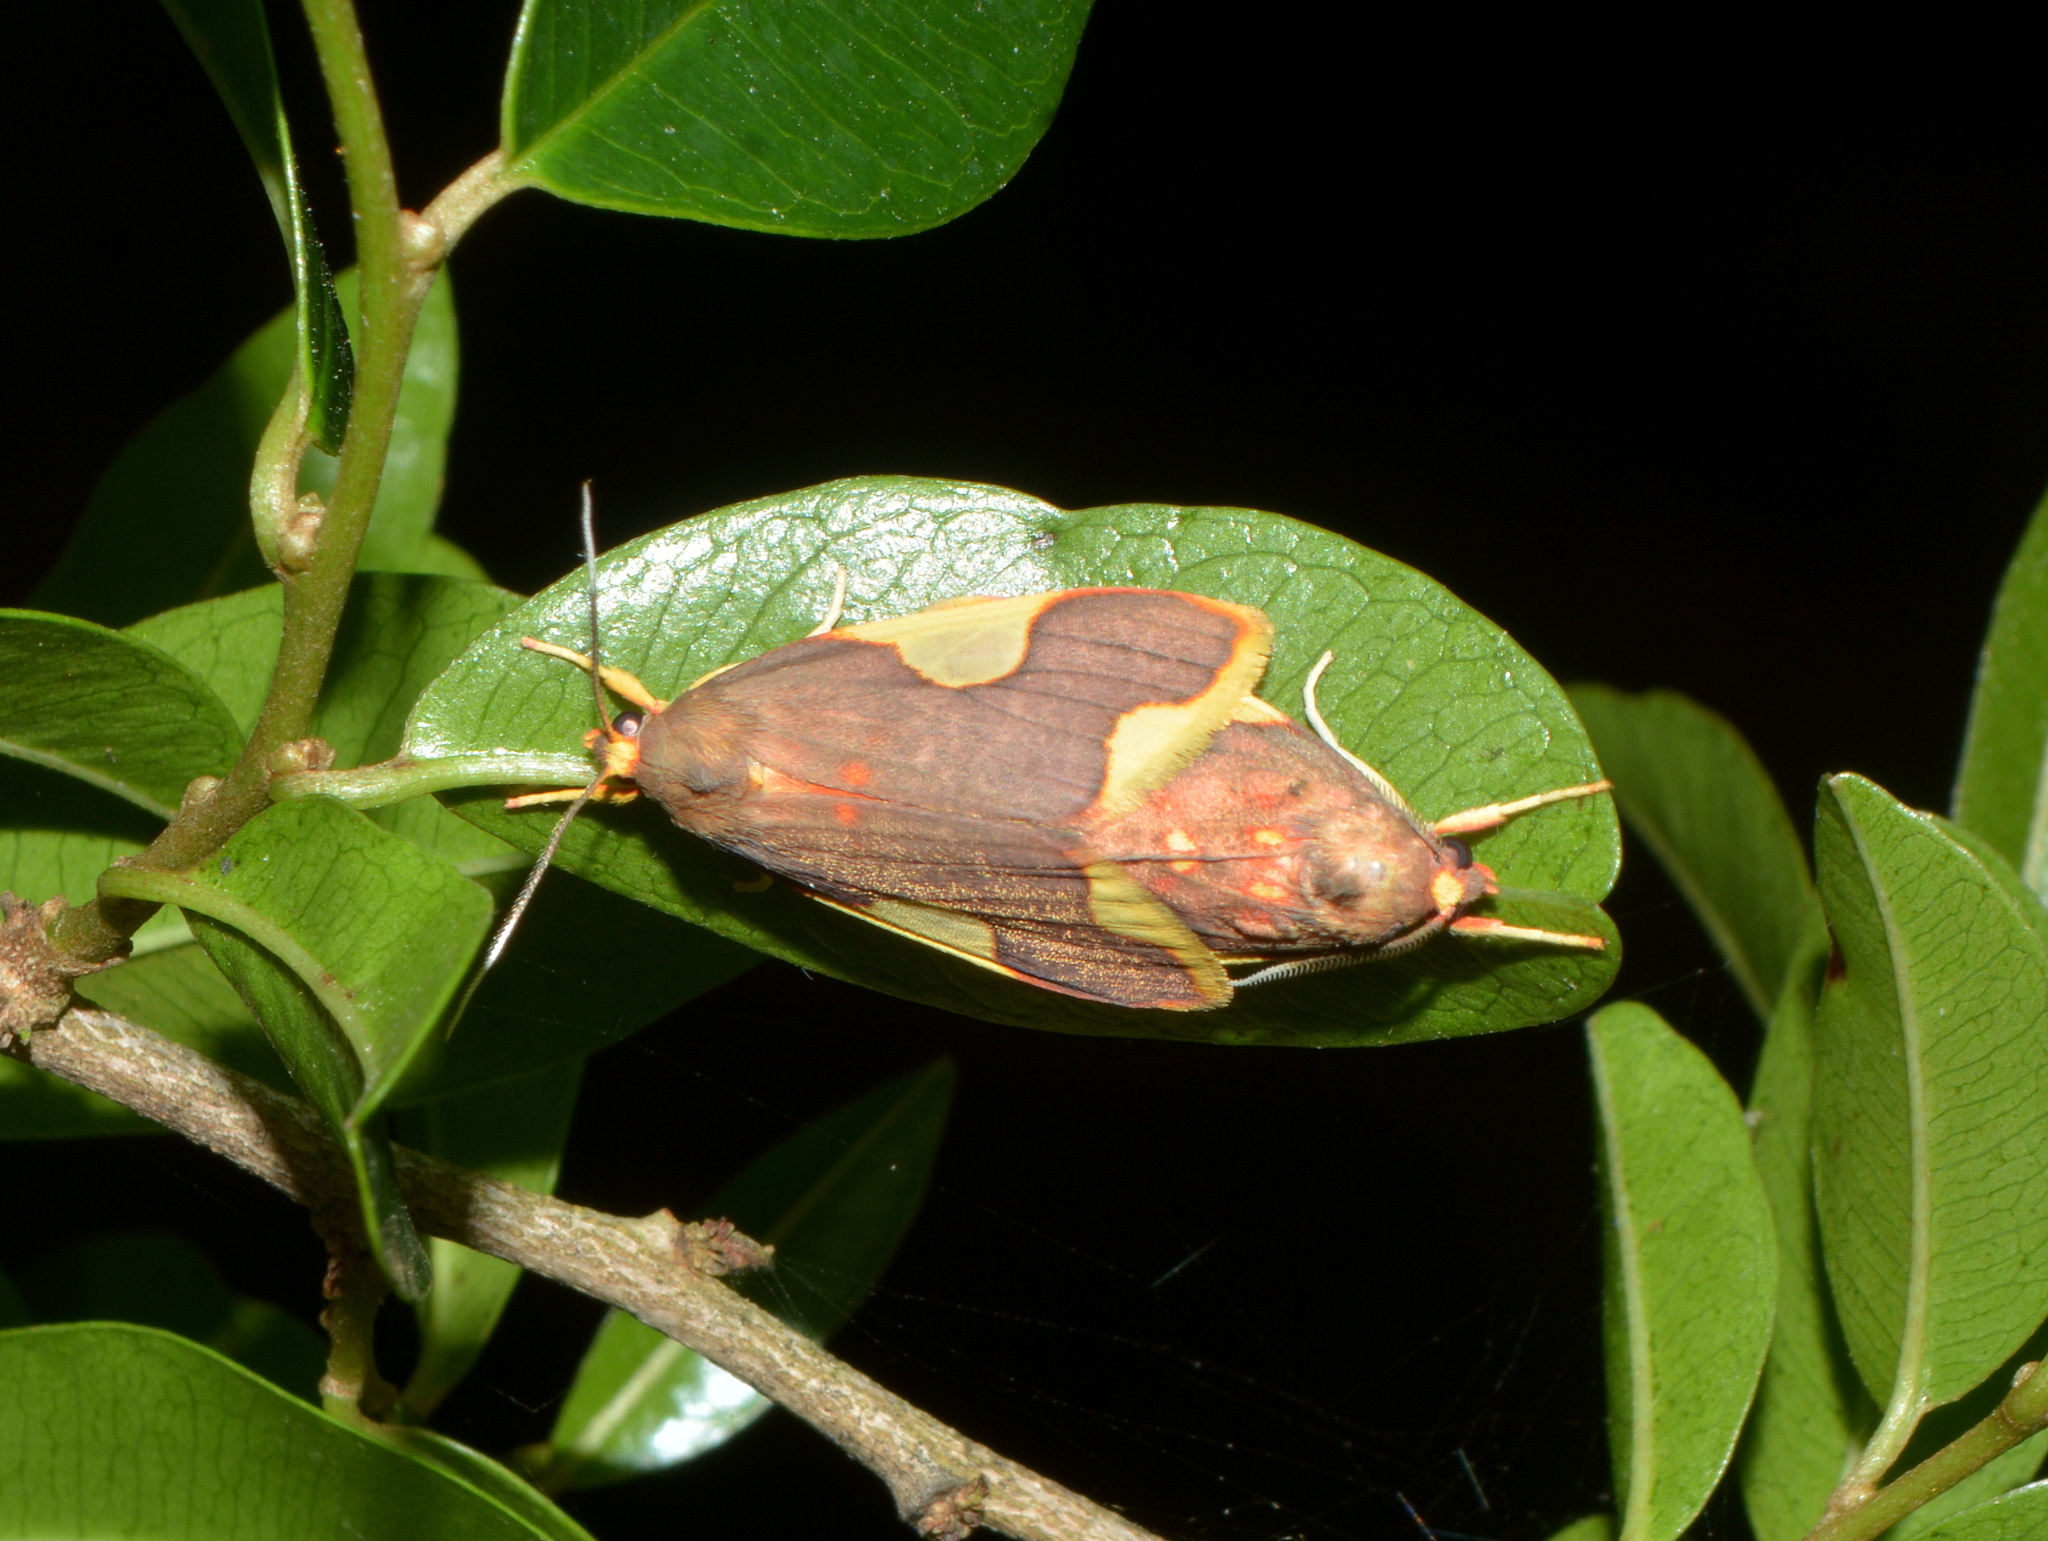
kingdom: Animalia
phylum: Arthropoda
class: Insecta
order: Lepidoptera
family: Erebidae
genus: Trichromia
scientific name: Trichromia
